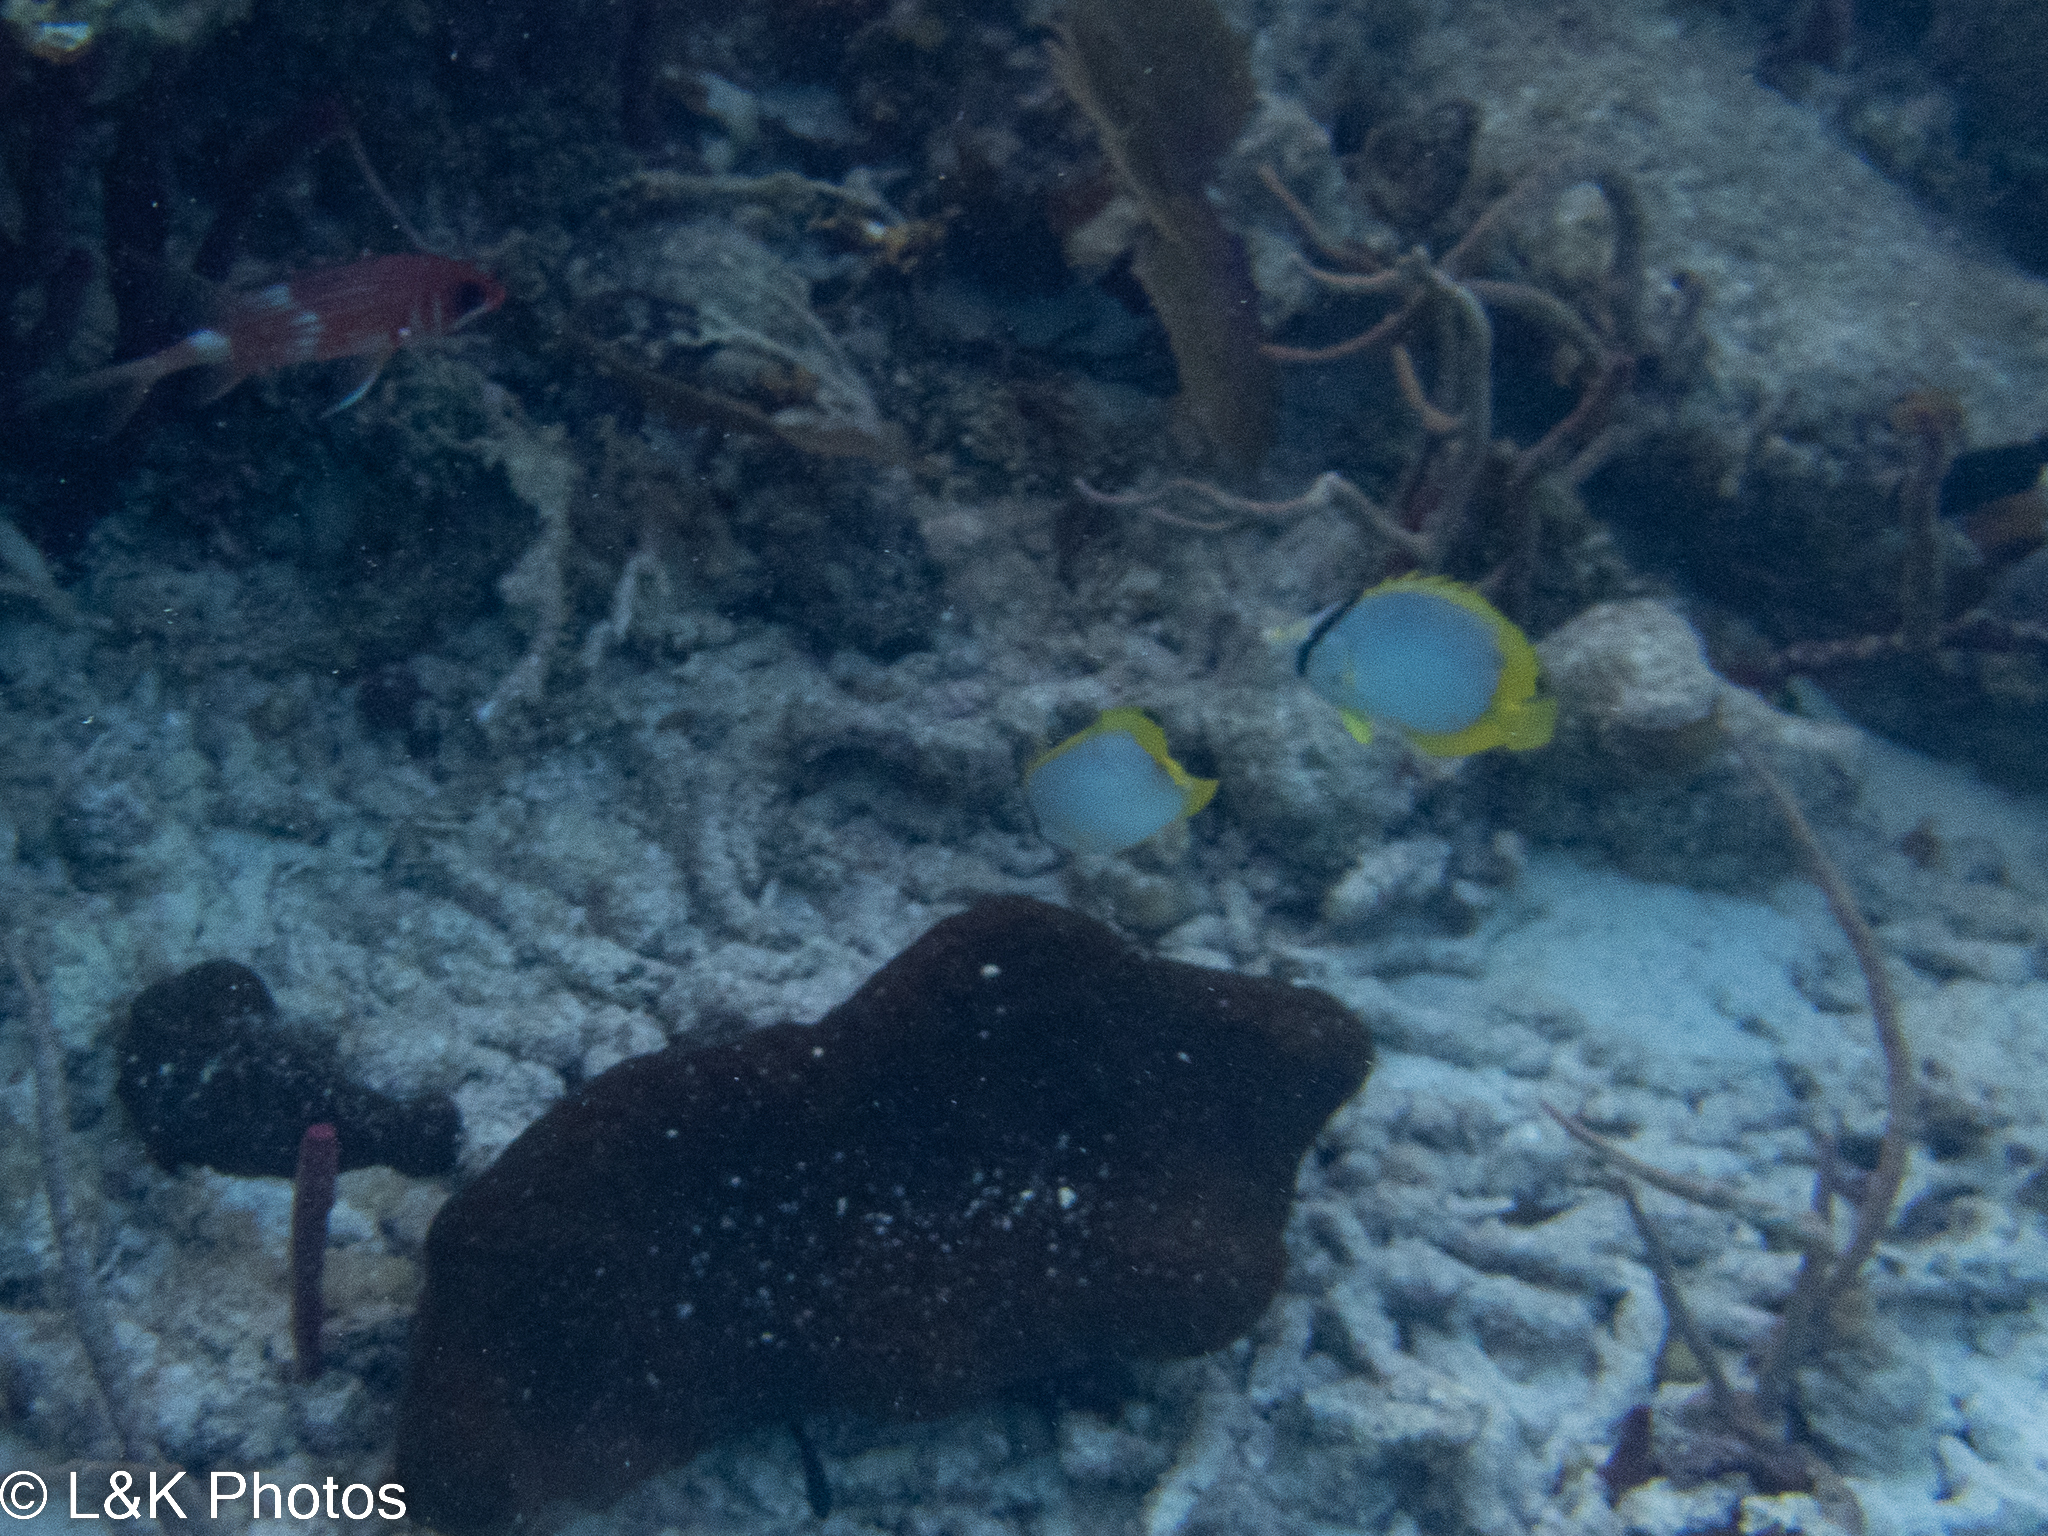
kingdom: Animalia
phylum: Chordata
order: Perciformes
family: Chaetodontidae
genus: Chaetodon
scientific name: Chaetodon ocellatus
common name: Spotfin butterflyfish
